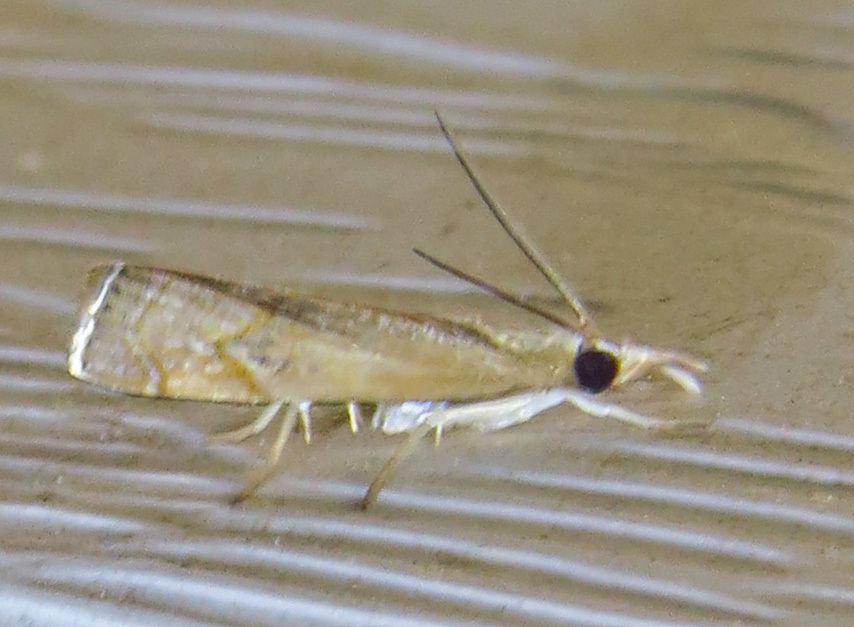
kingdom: Animalia
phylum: Arthropoda
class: Insecta
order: Lepidoptera
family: Crambidae
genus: Parapediasia
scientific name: Parapediasia teterellus
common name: Bluegrass webworm moth
